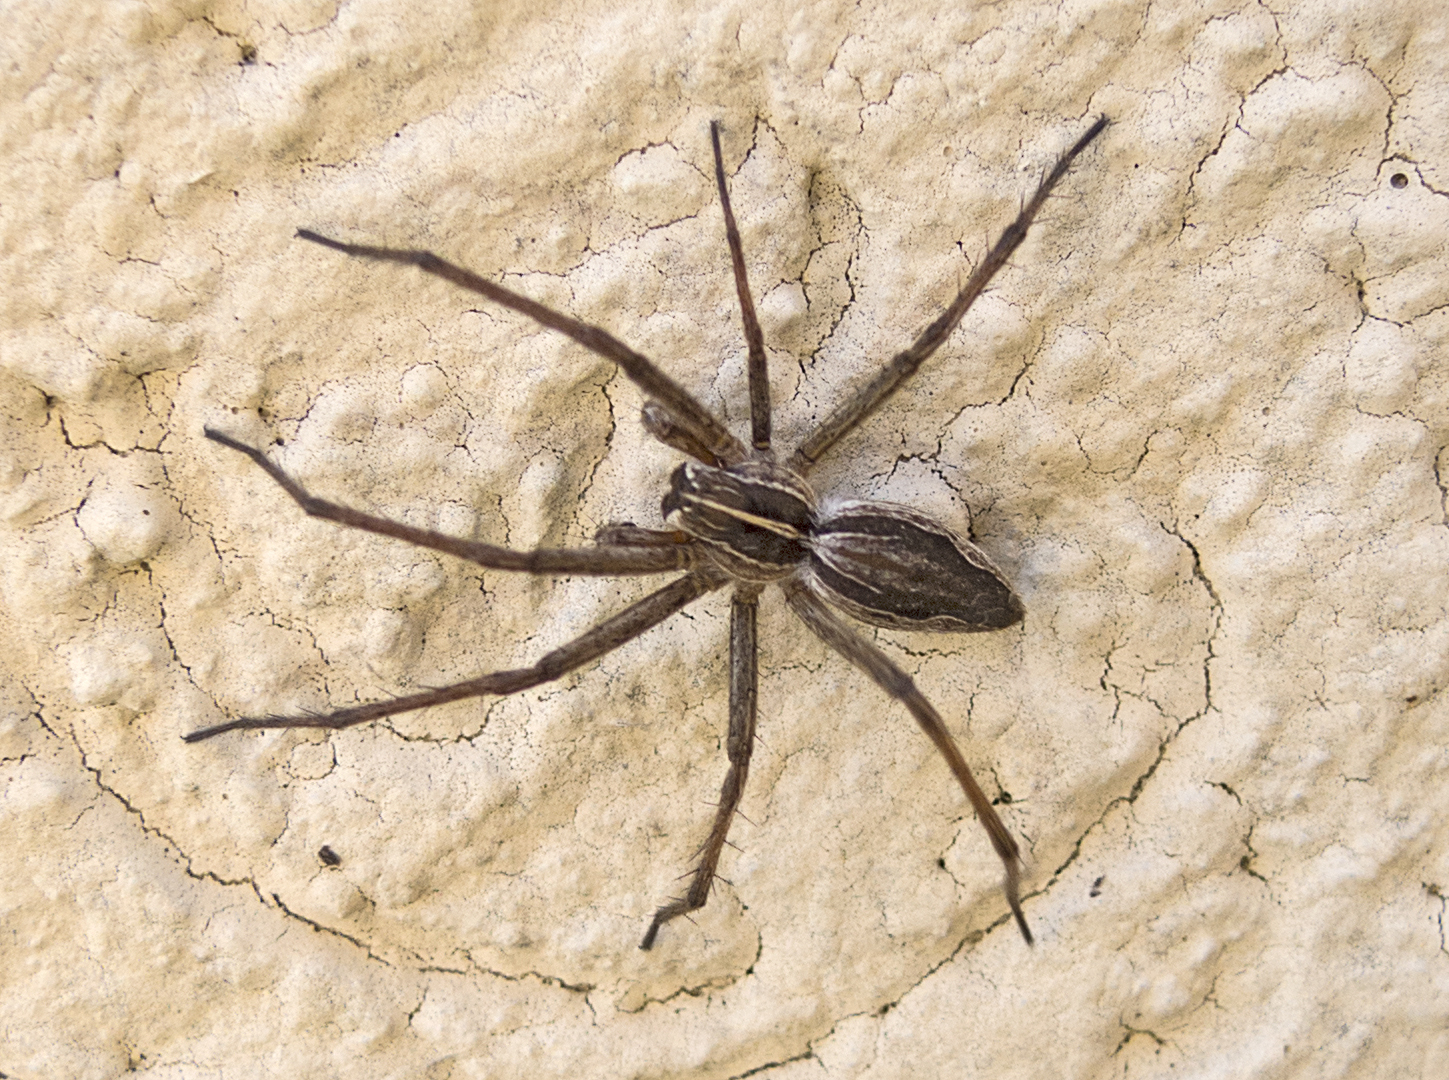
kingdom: Animalia
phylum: Arthropoda
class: Arachnida
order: Araneae
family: Pisauridae
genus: Pisaura
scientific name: Pisaura
